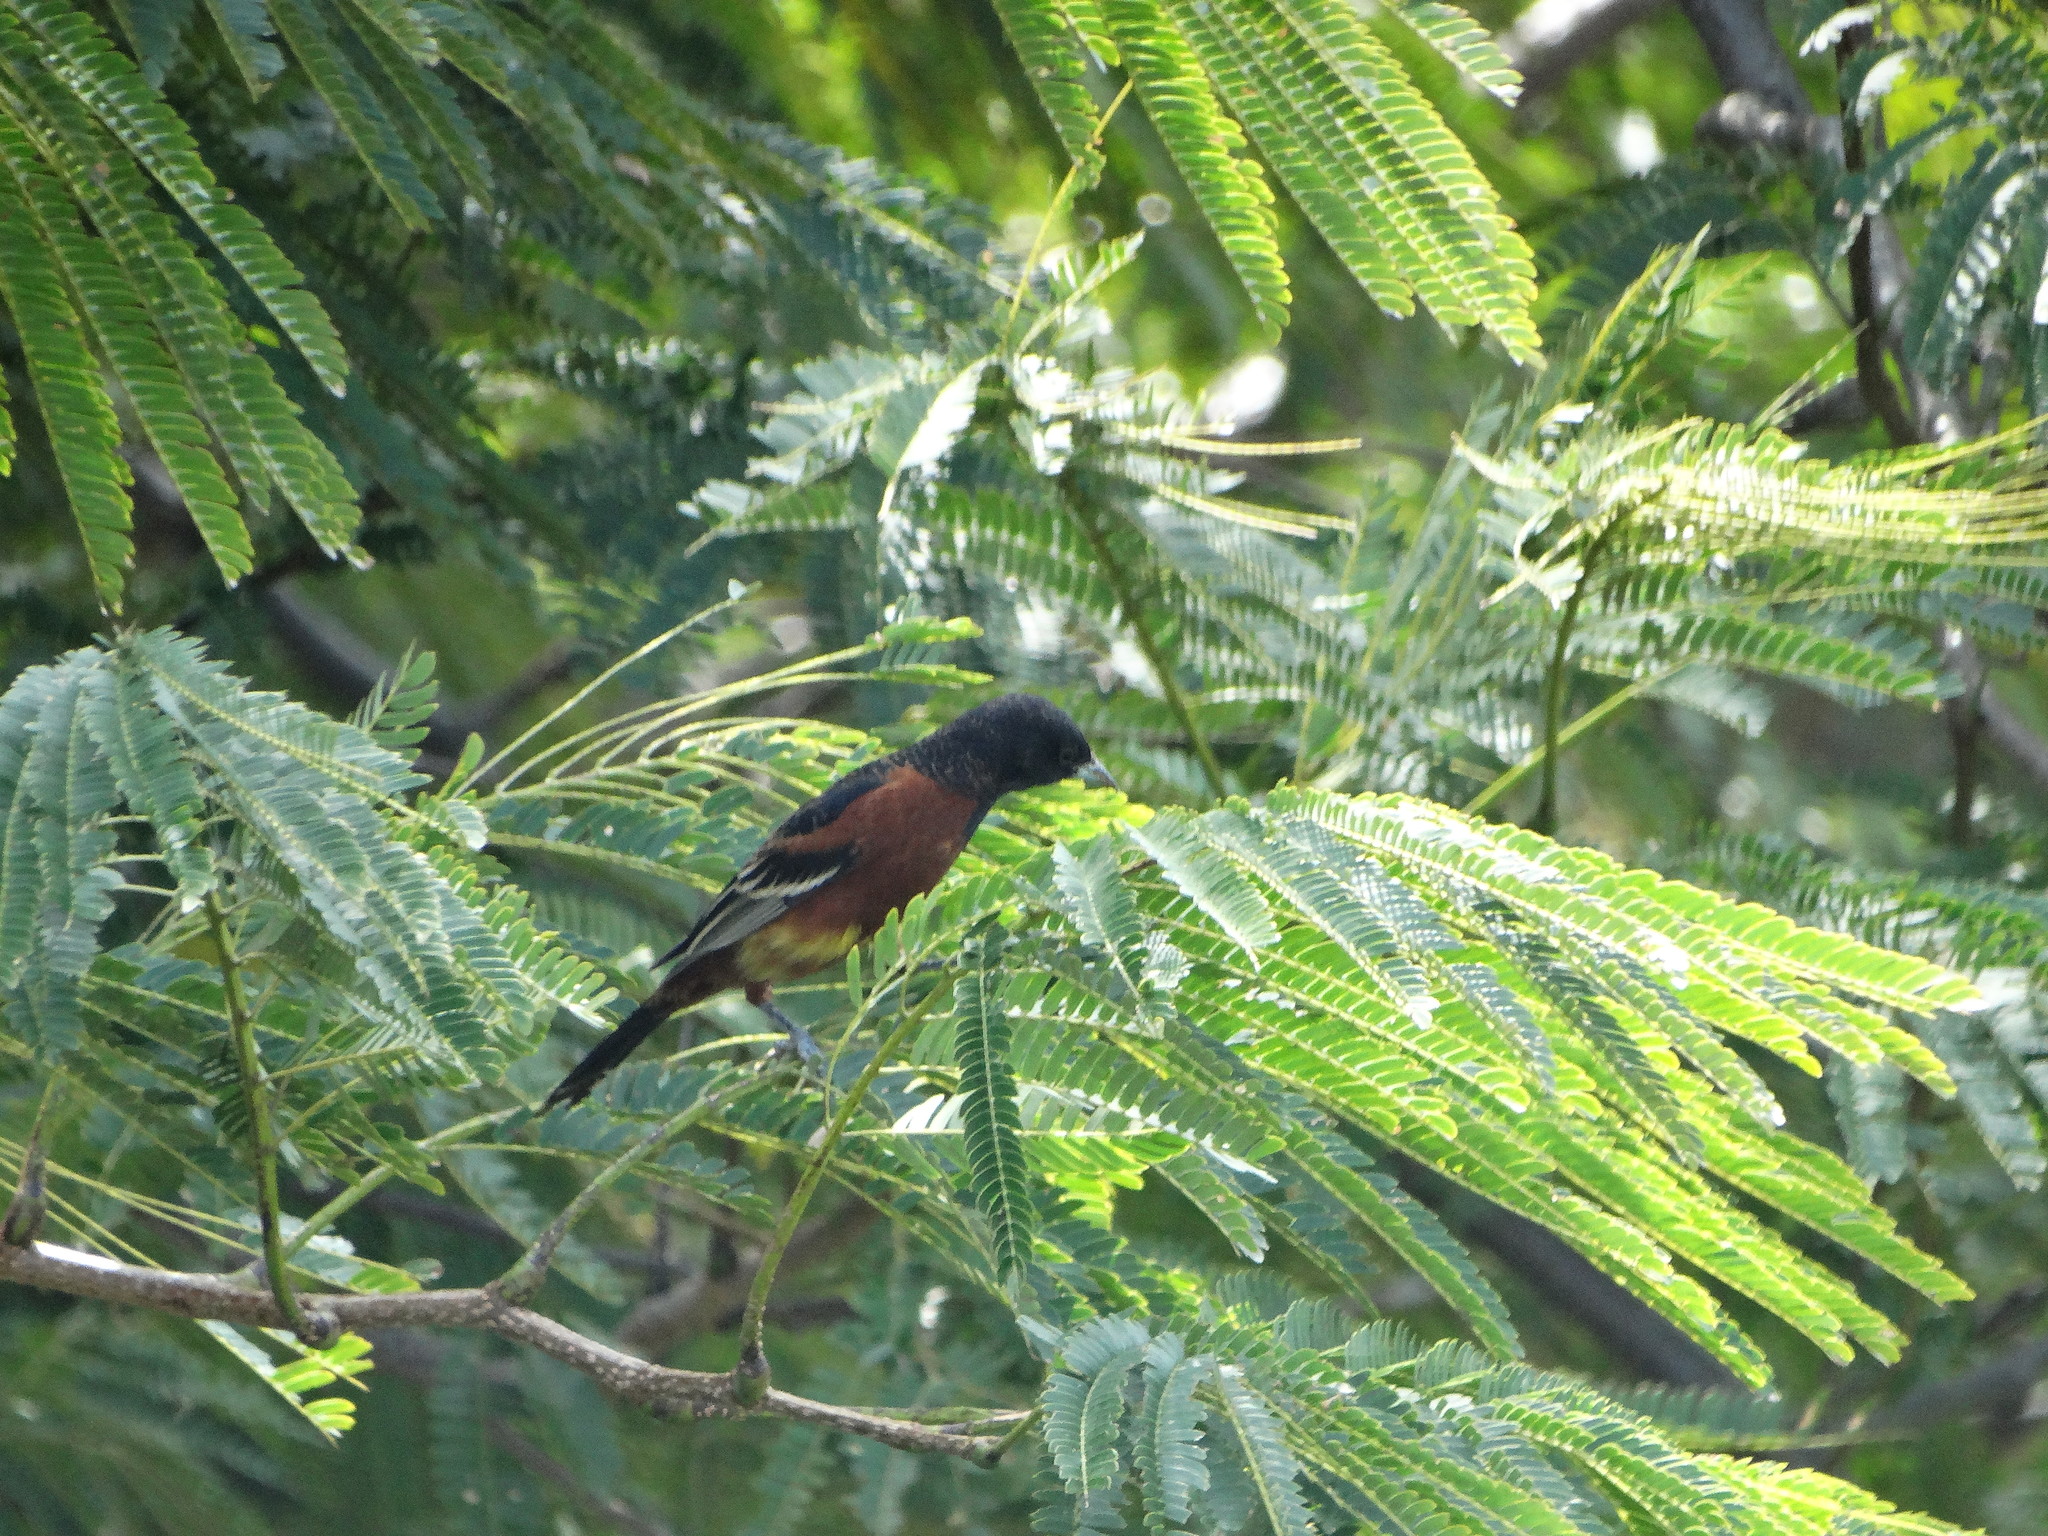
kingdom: Animalia
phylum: Chordata
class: Aves
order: Passeriformes
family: Icteridae
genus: Icterus
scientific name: Icterus spurius
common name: Orchard oriole
